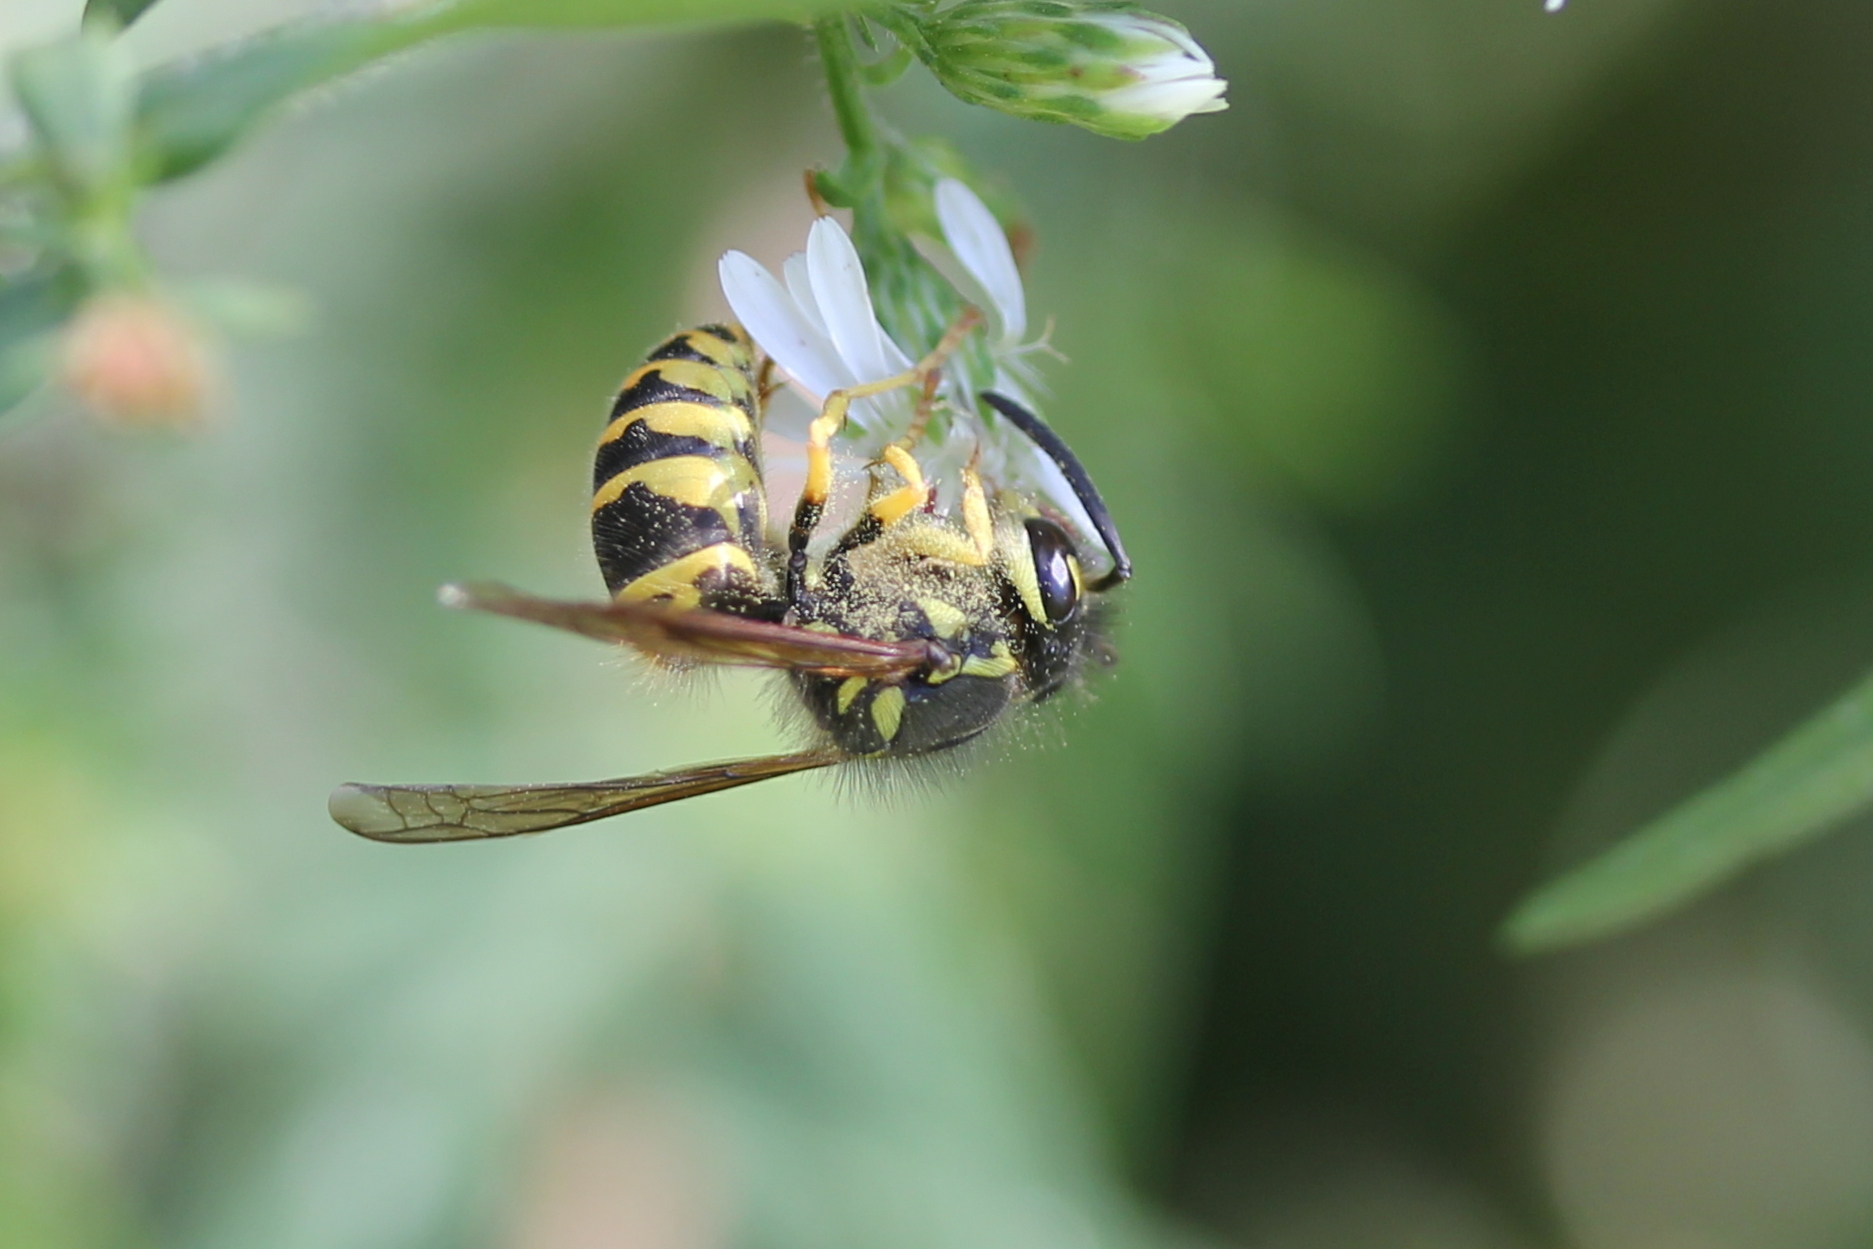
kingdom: Animalia
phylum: Arthropoda
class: Insecta
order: Hymenoptera
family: Vespidae
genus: Vespula
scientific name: Vespula maculifrons
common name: Eastern yellowjacket
